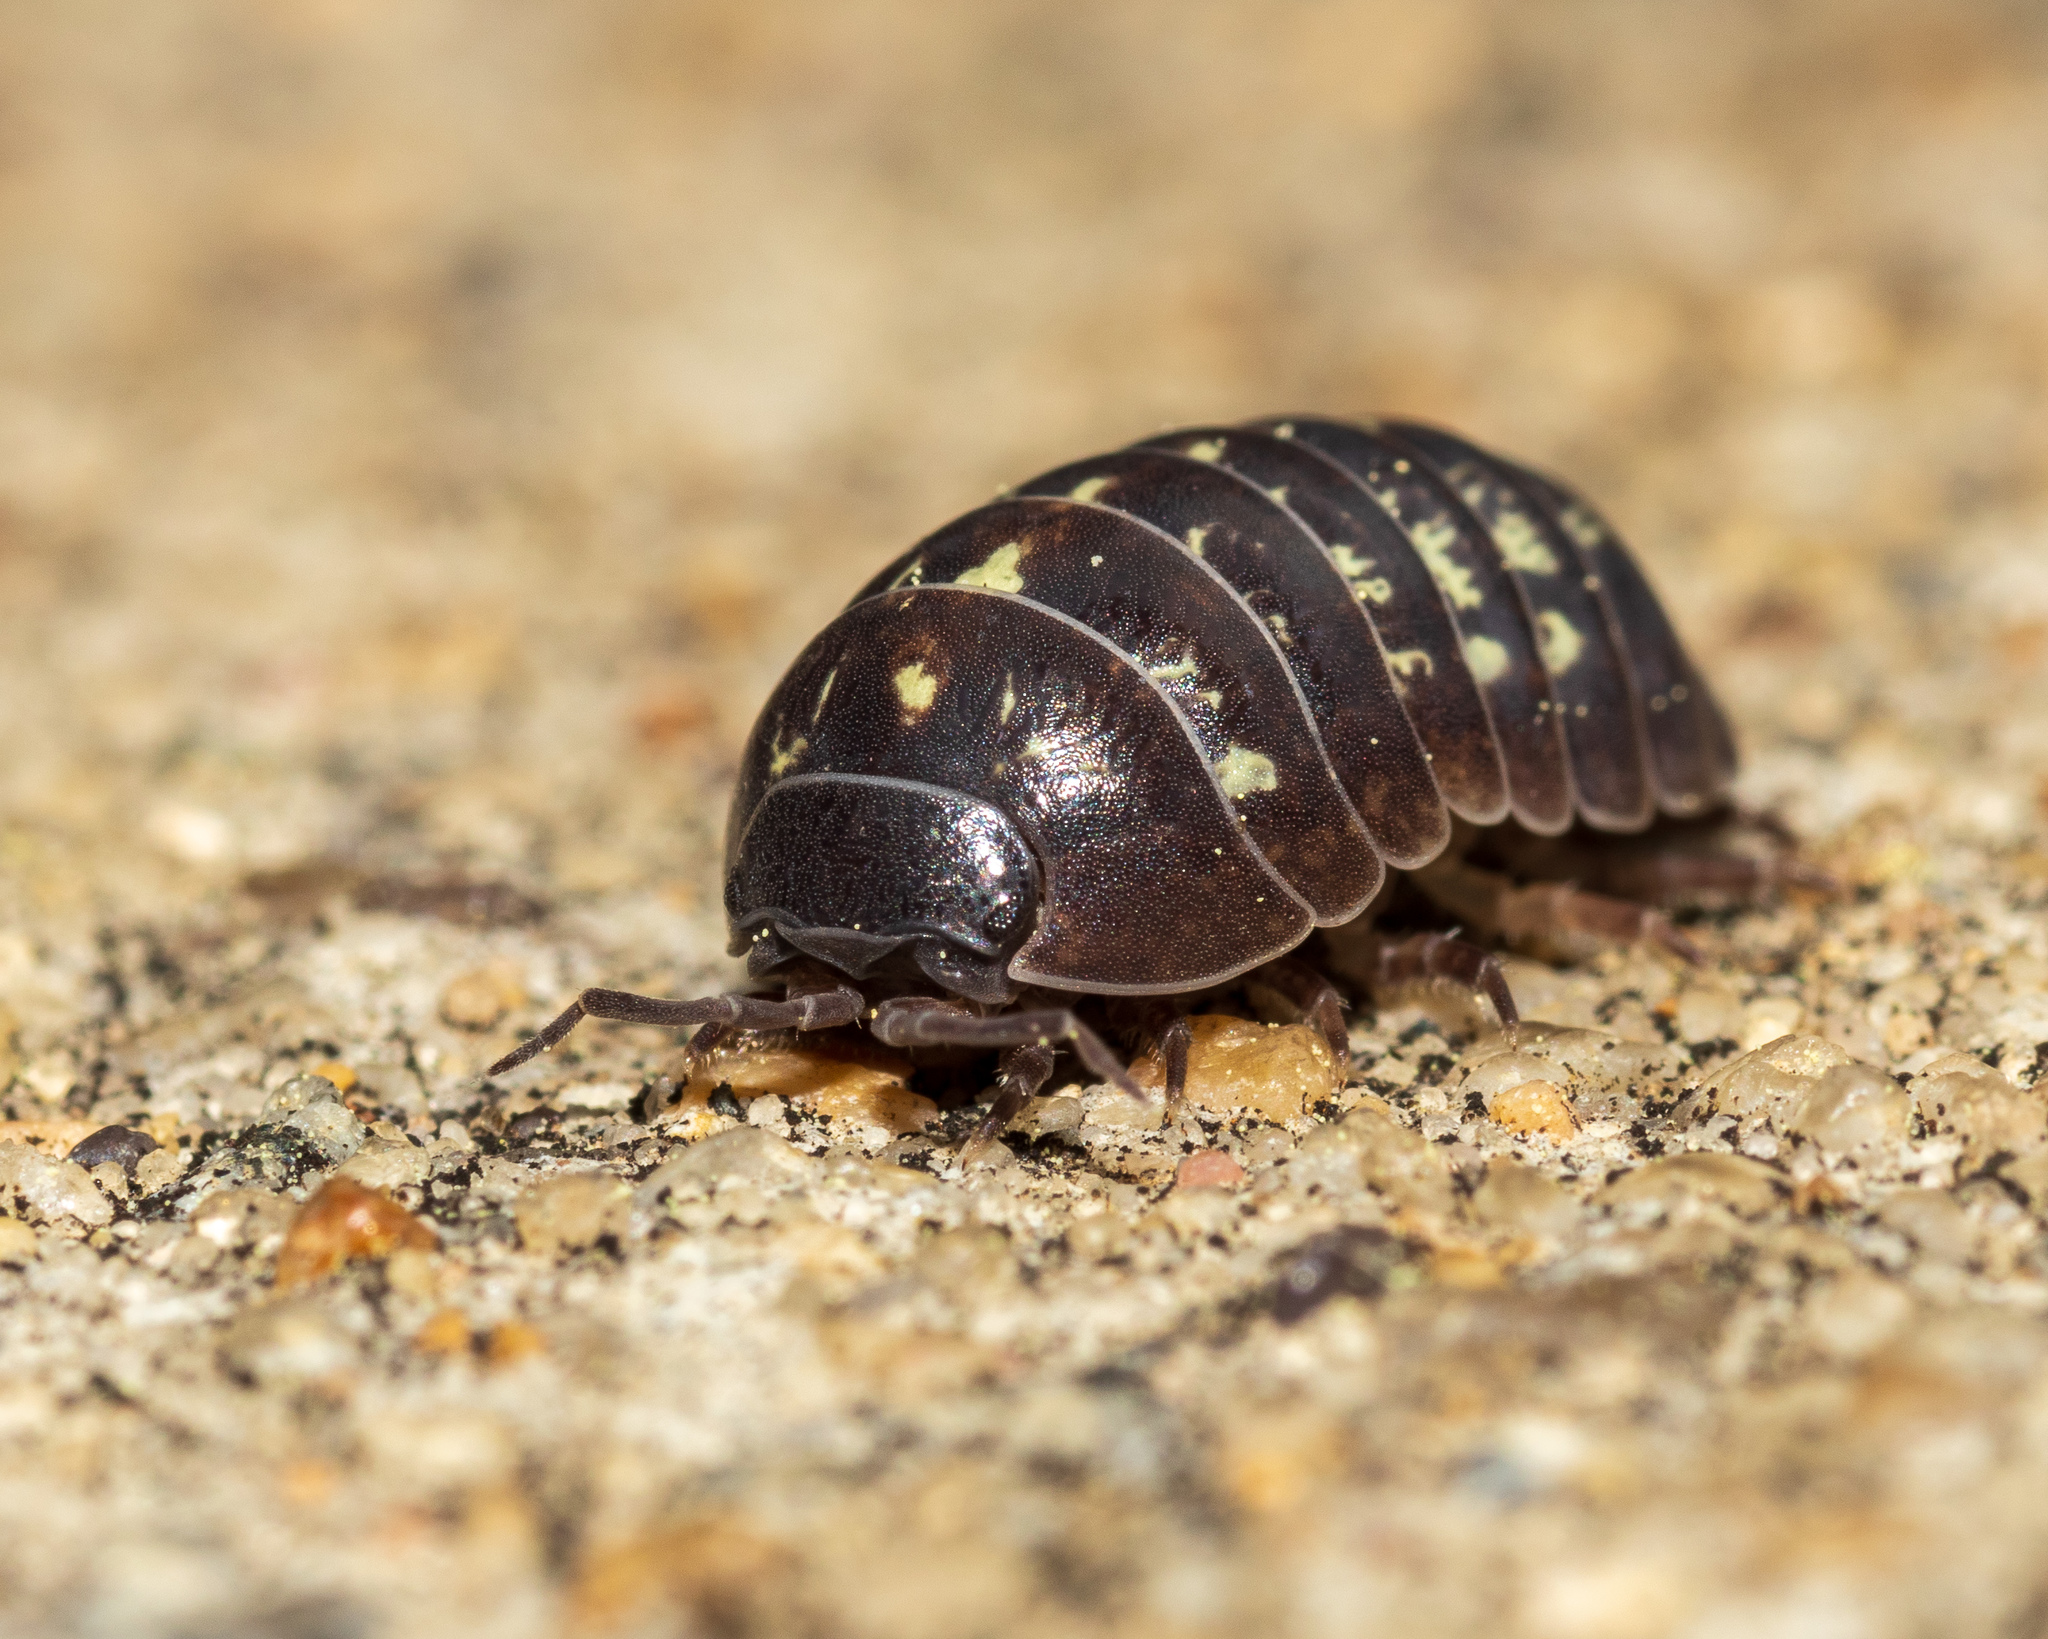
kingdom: Animalia
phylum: Arthropoda
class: Malacostraca
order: Isopoda
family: Armadillidiidae
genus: Armadillidium
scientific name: Armadillidium vulgare
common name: Common pill woodlouse
